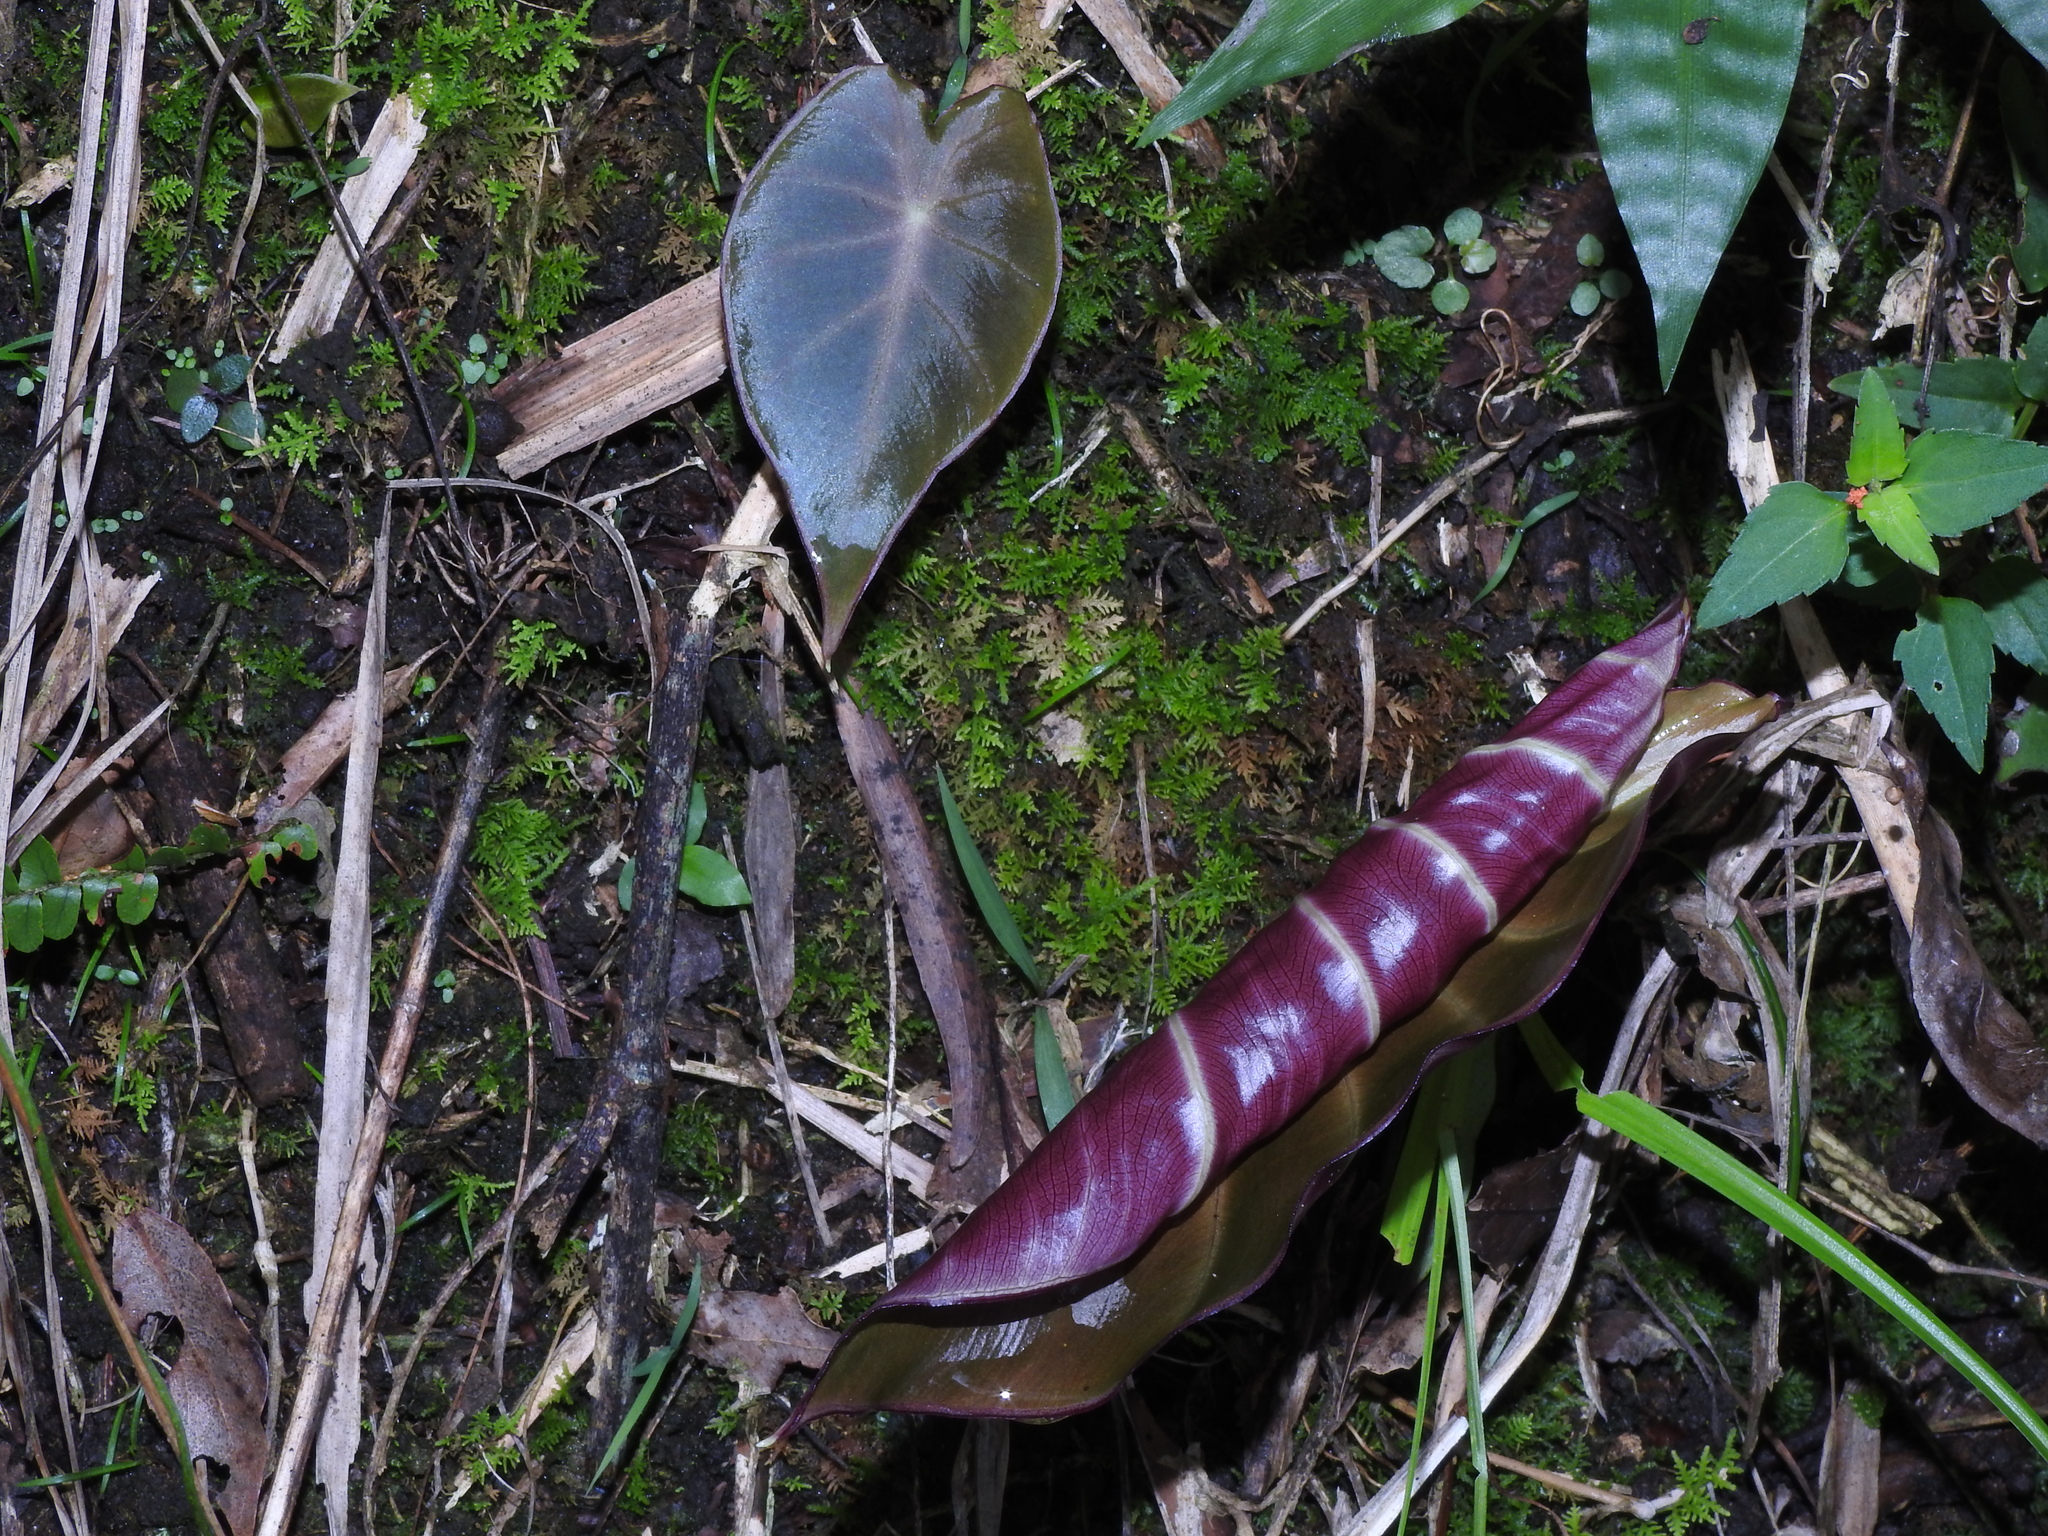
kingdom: Plantae
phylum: Tracheophyta
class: Liliopsida
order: Alismatales
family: Araceae
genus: Remusatia
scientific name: Remusatia vivipara
